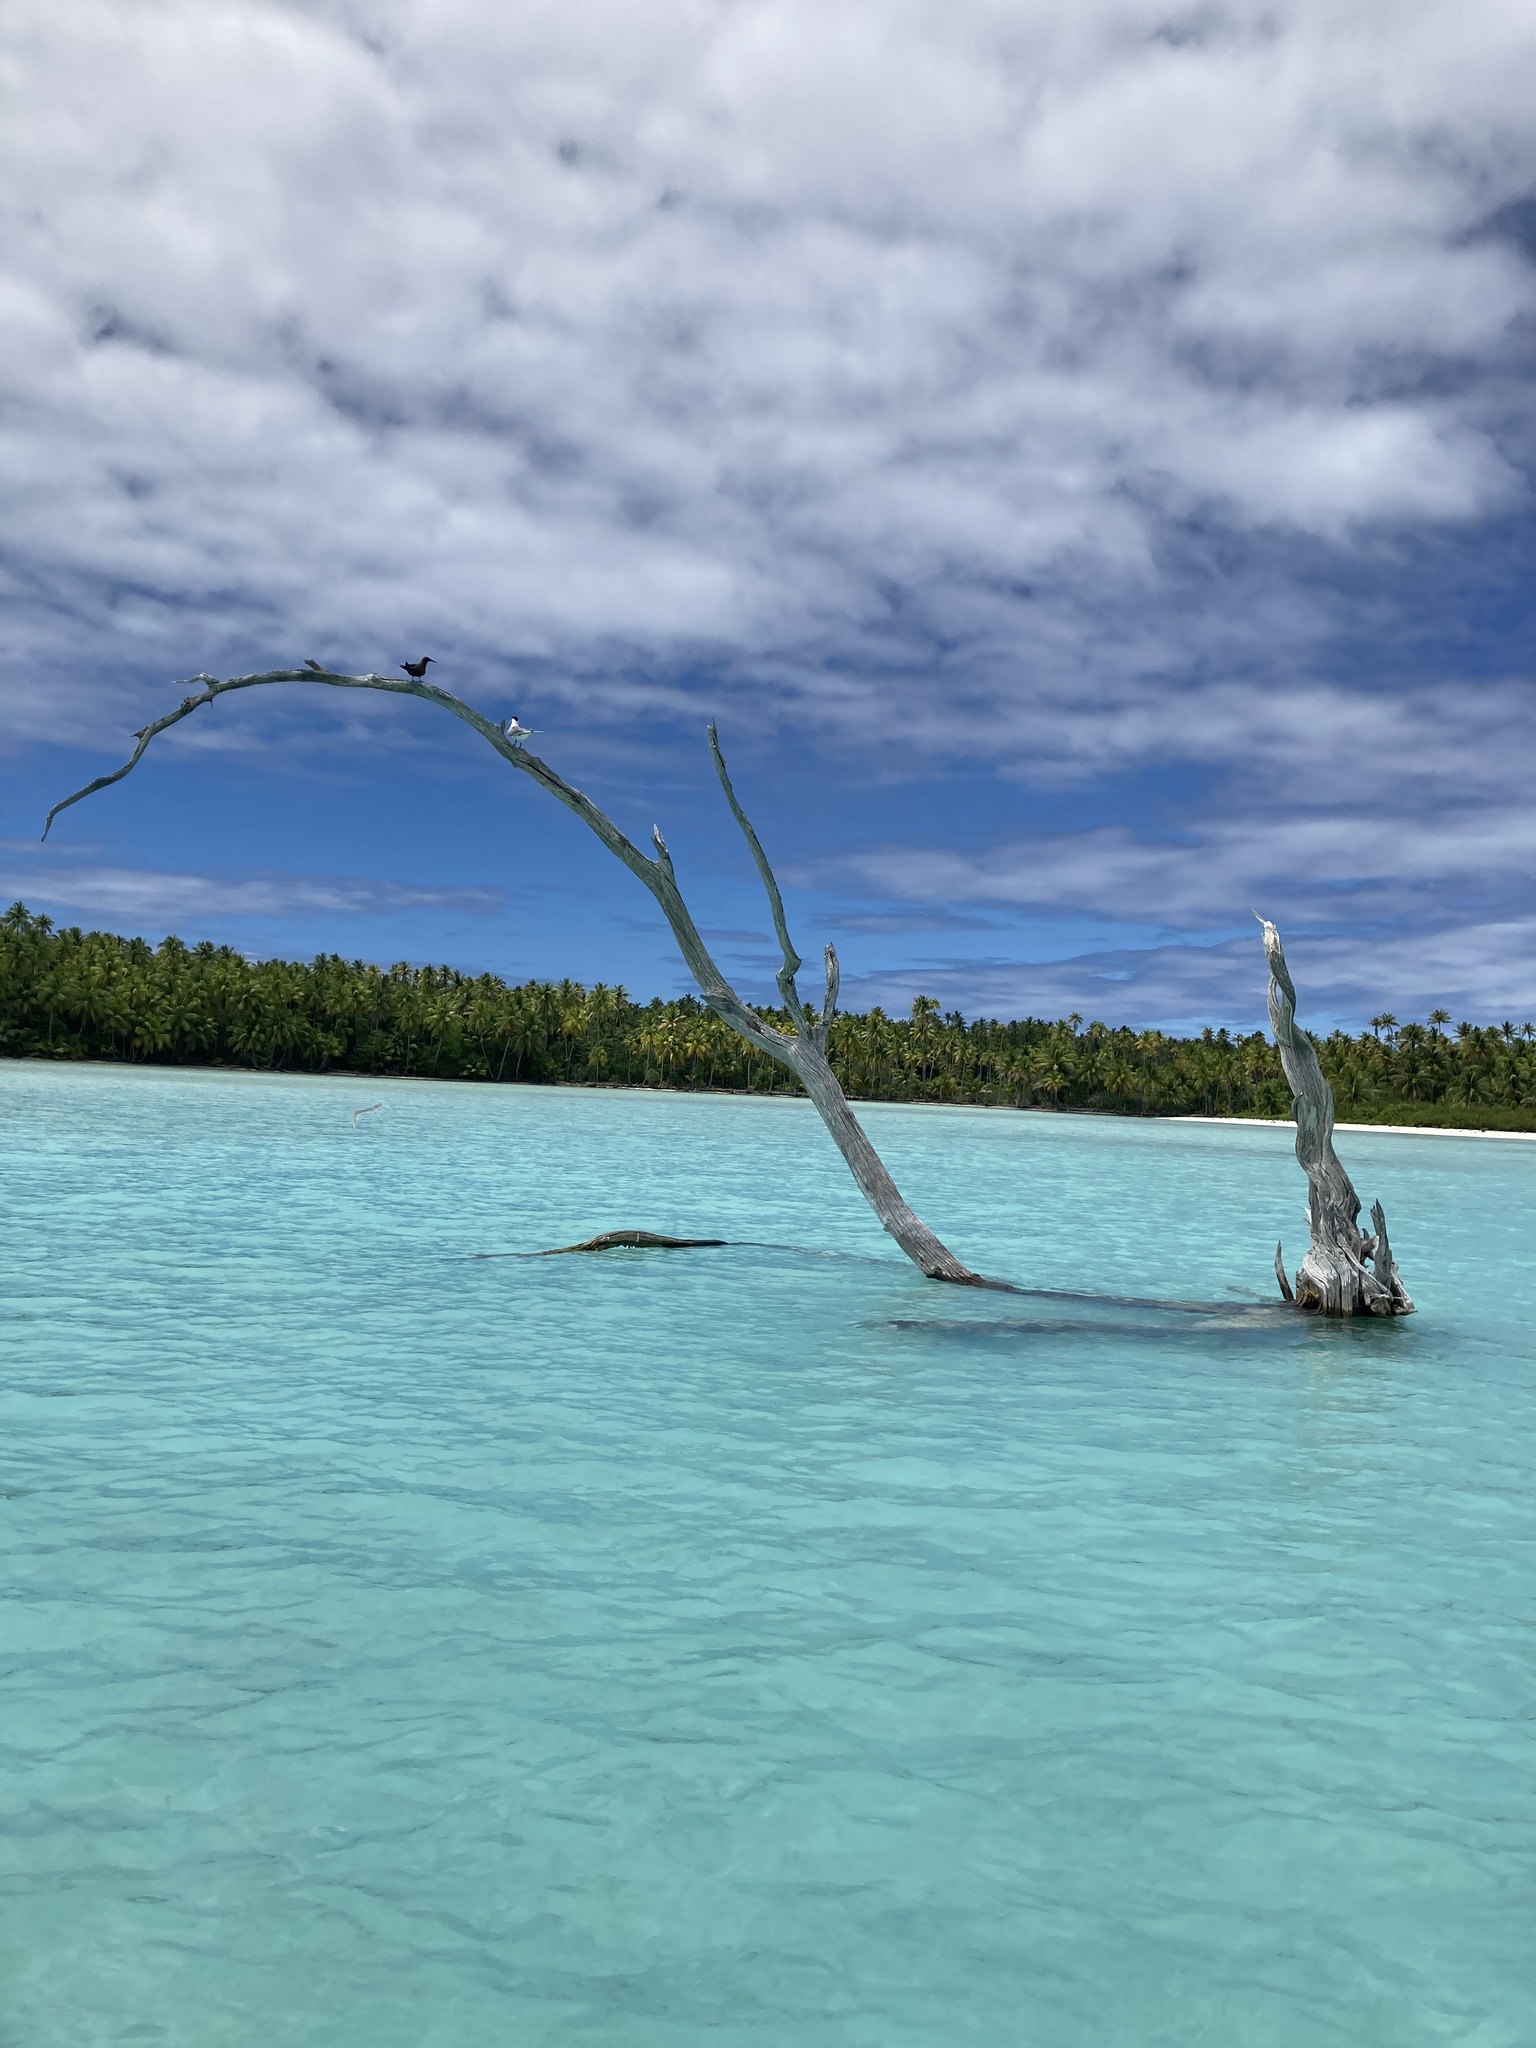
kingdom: Animalia
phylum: Chordata
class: Aves
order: Charadriiformes
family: Laridae
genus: Thalasseus
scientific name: Thalasseus bergii
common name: Greater crested tern
